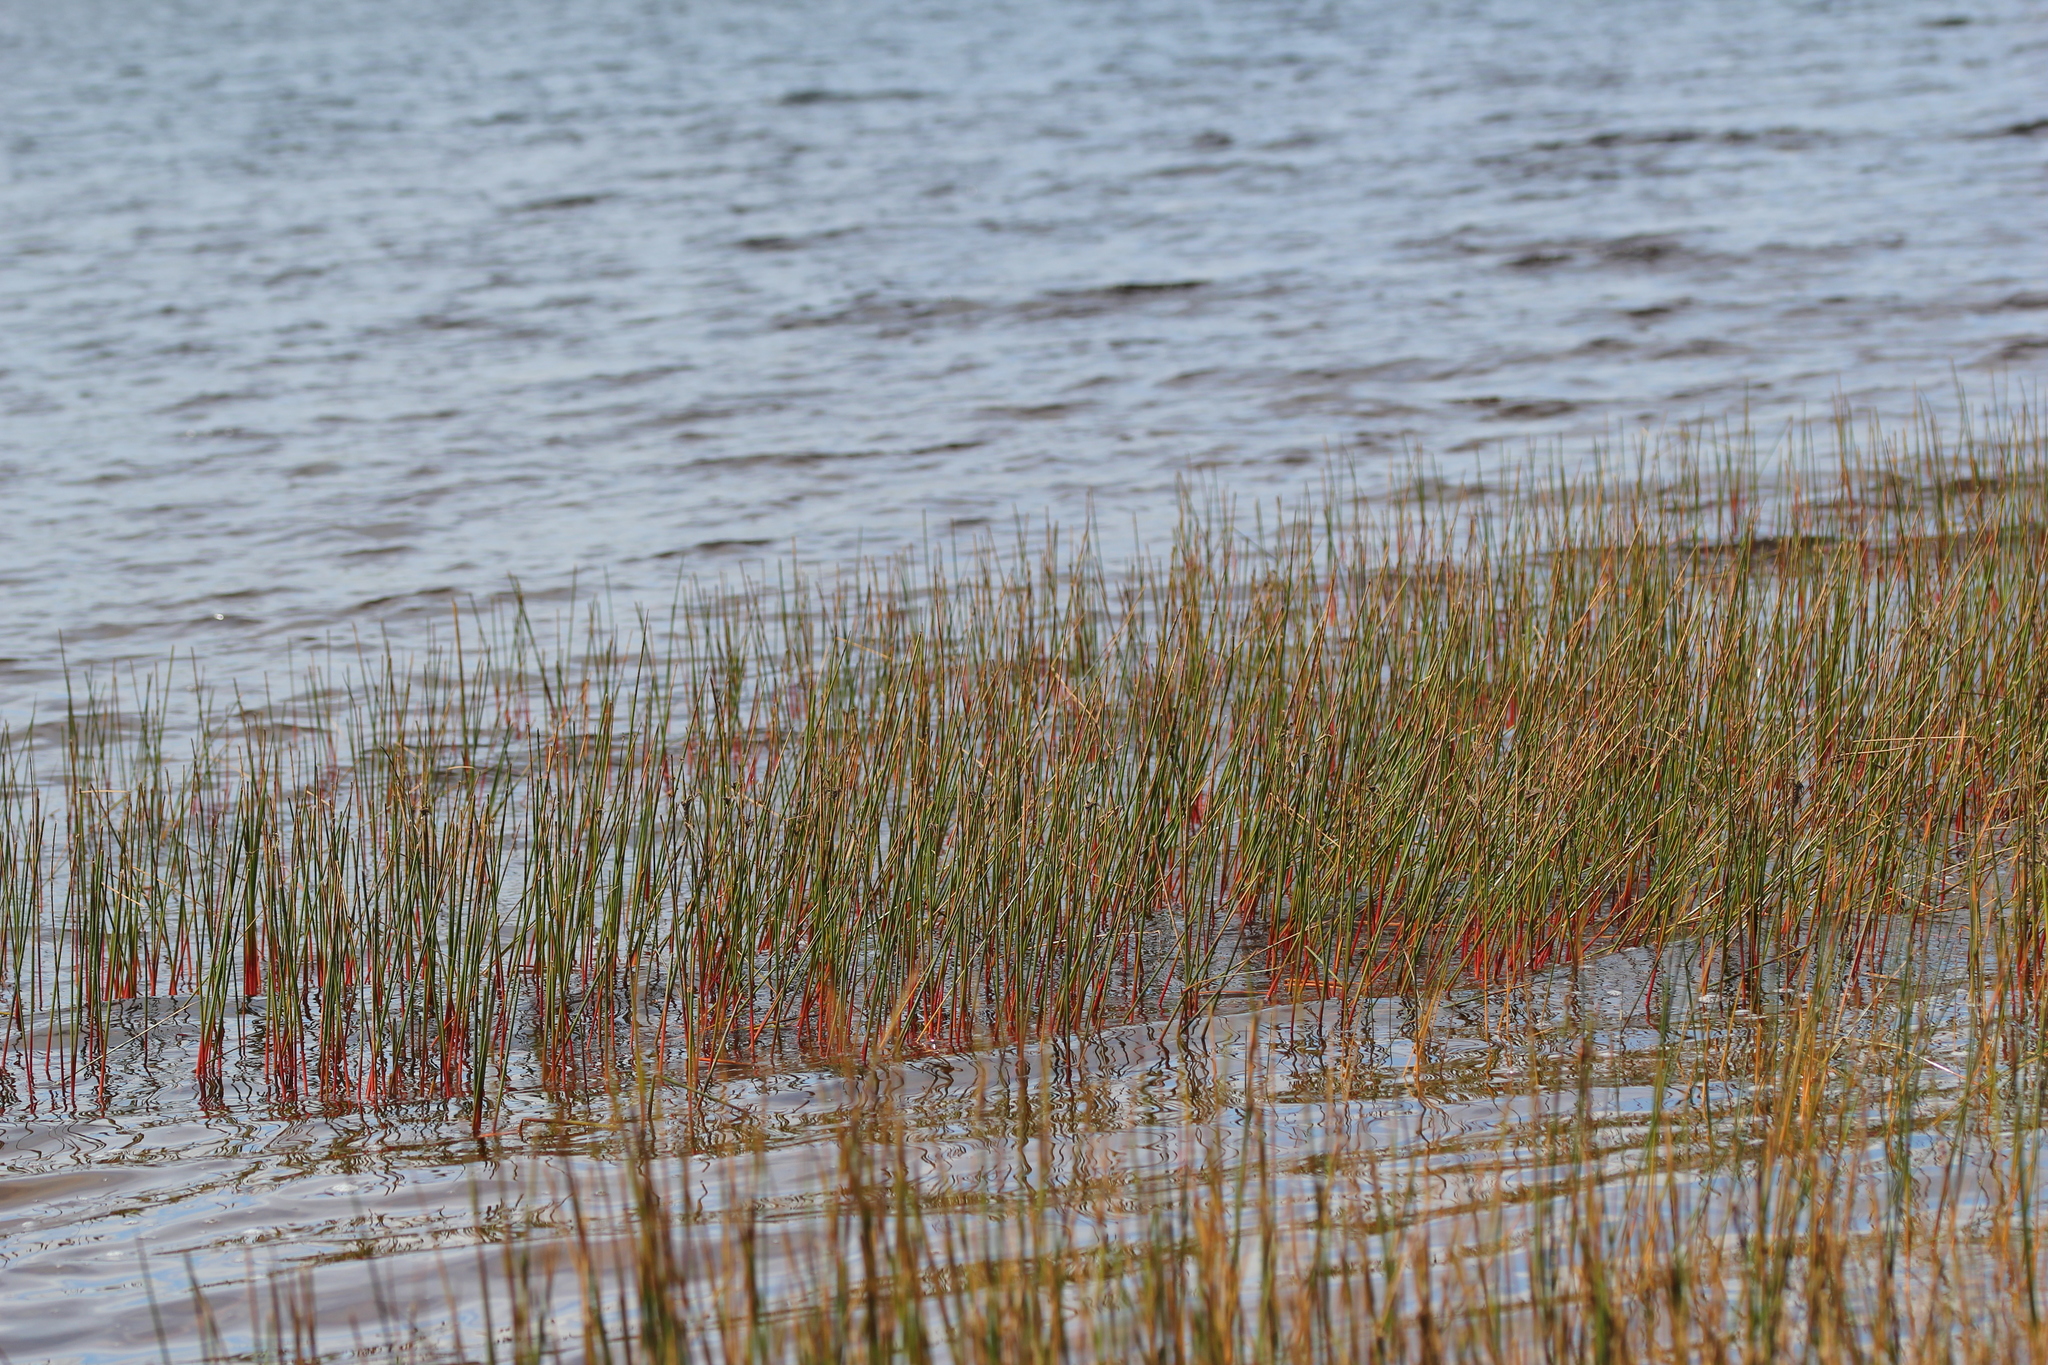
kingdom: Plantae
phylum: Tracheophyta
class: Liliopsida
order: Poales
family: Juncaceae
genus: Juncus
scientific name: Juncus militaris
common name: Bayonet rush
